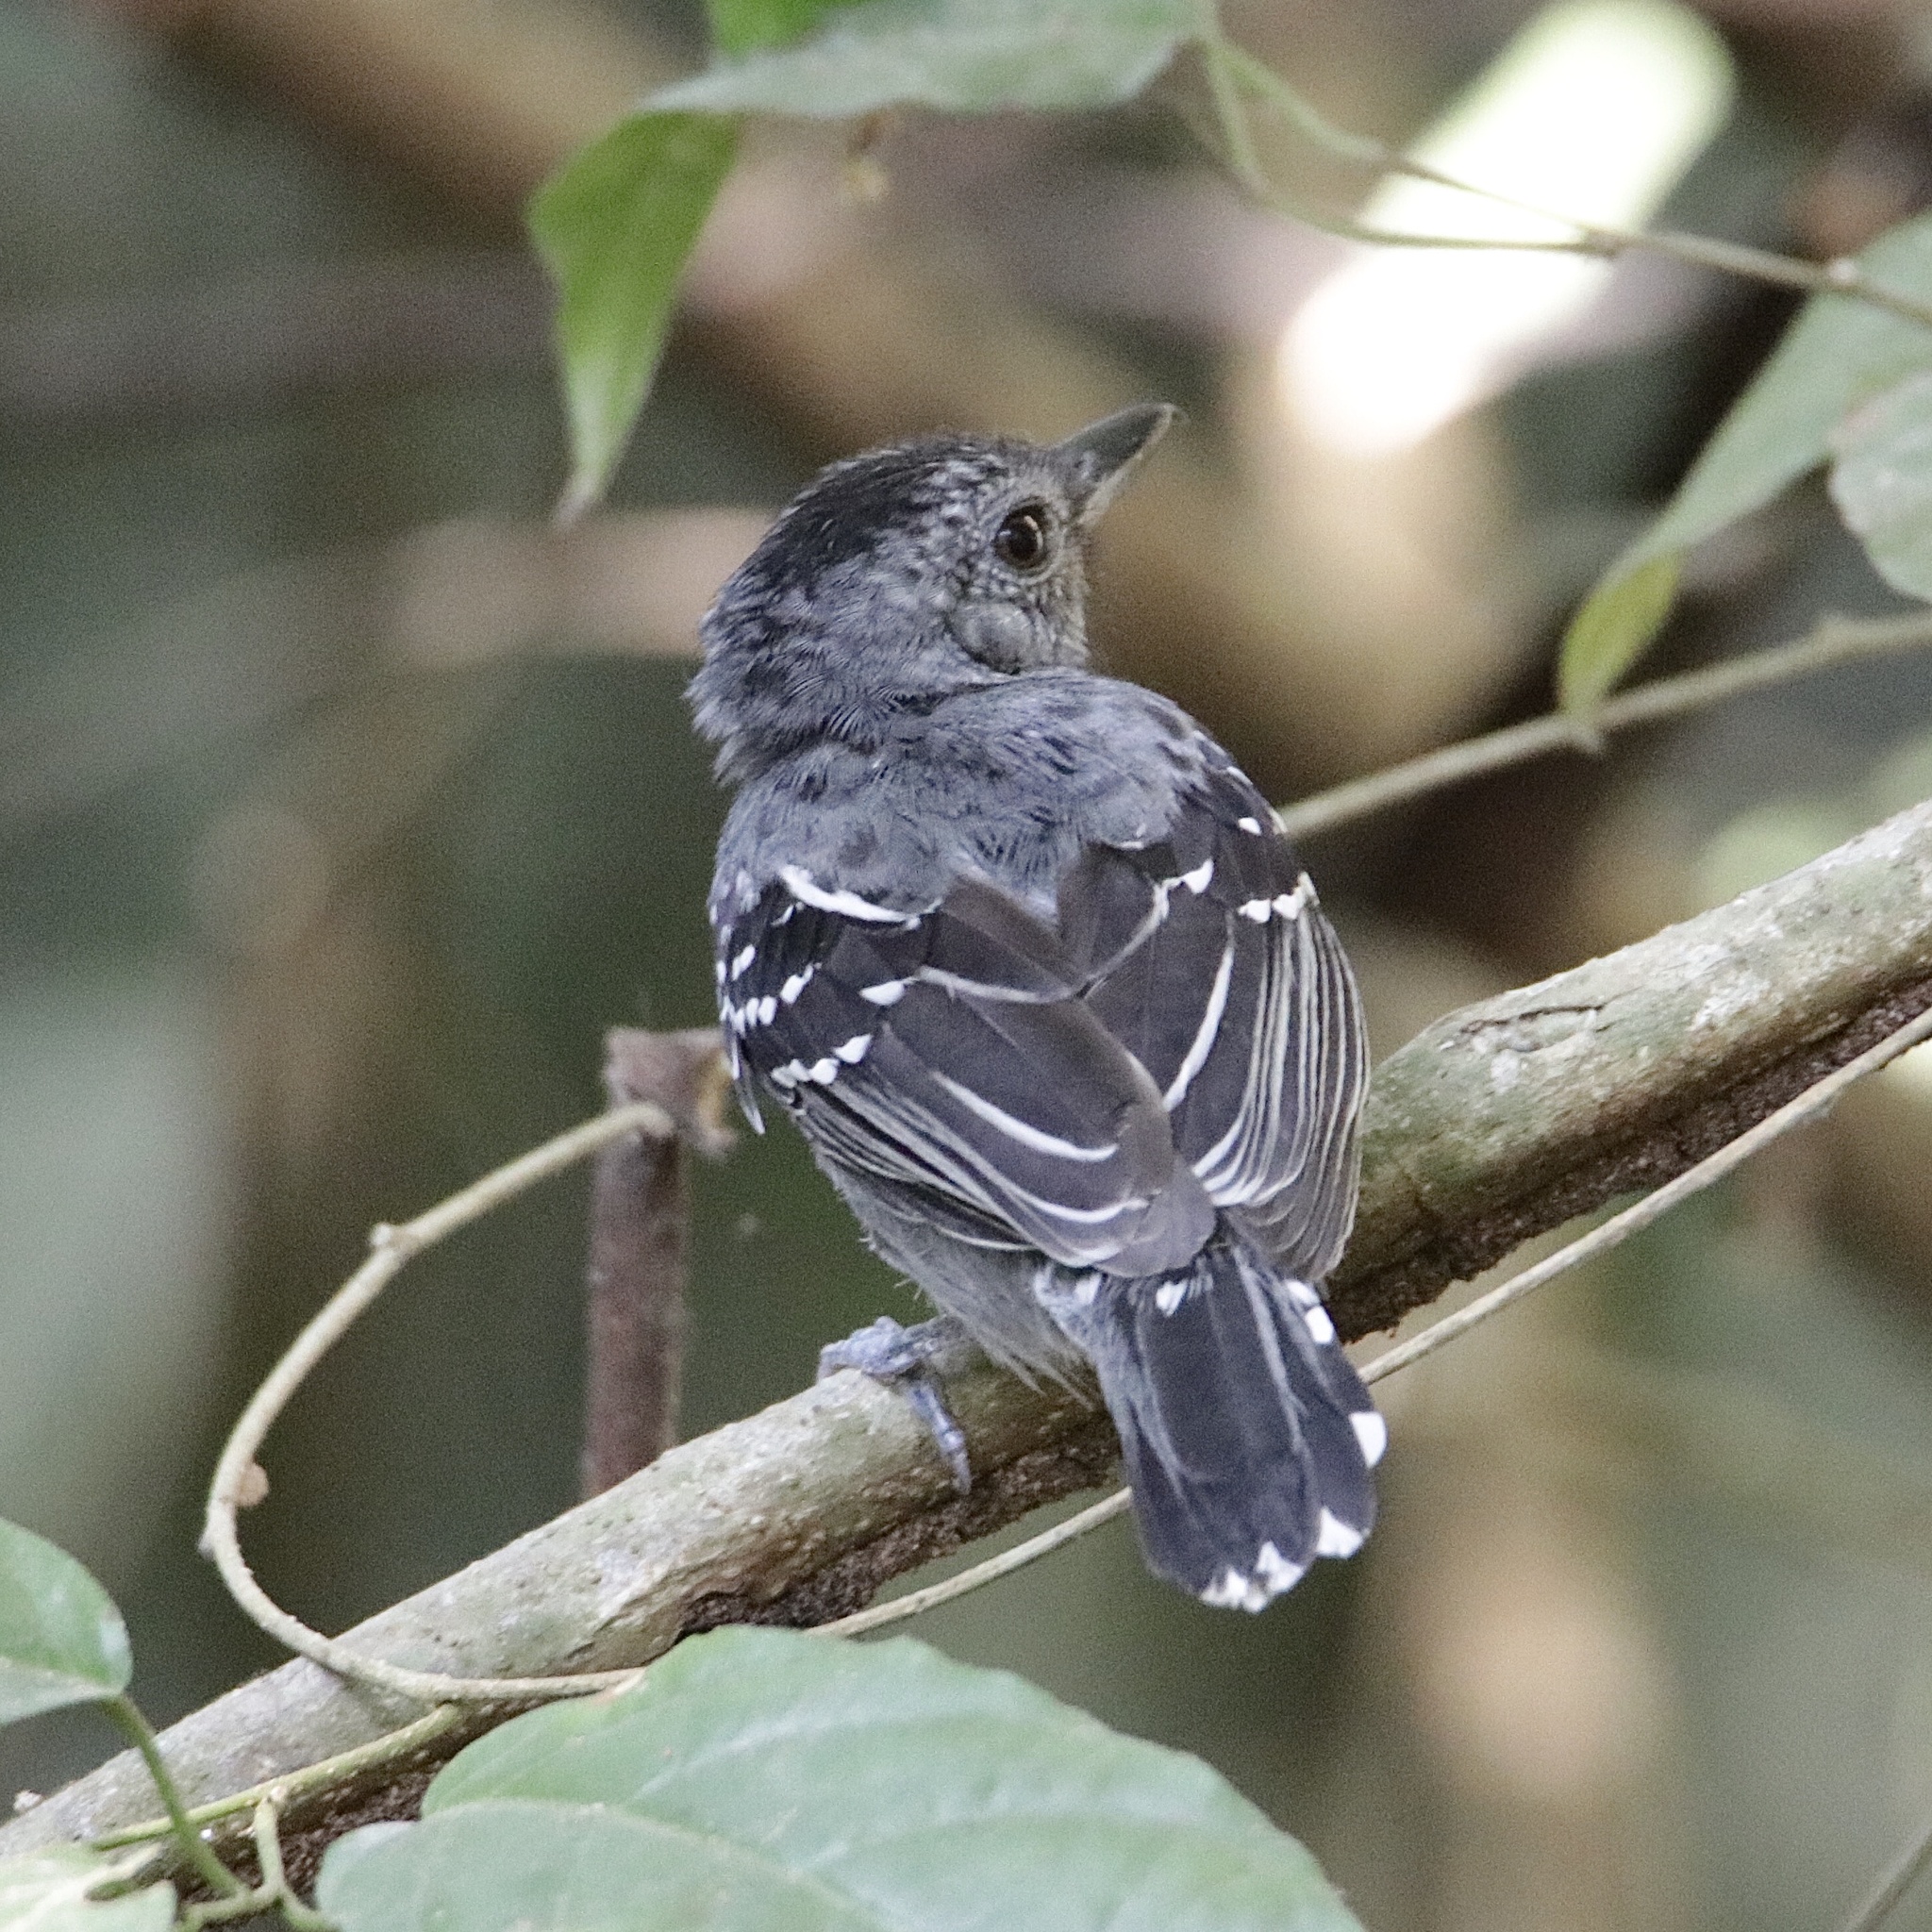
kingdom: Animalia
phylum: Chordata
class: Aves
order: Passeriformes
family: Thamnophilidae
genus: Thamnophilus
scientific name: Thamnophilus atrinucha
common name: Black-crowned antshrike
